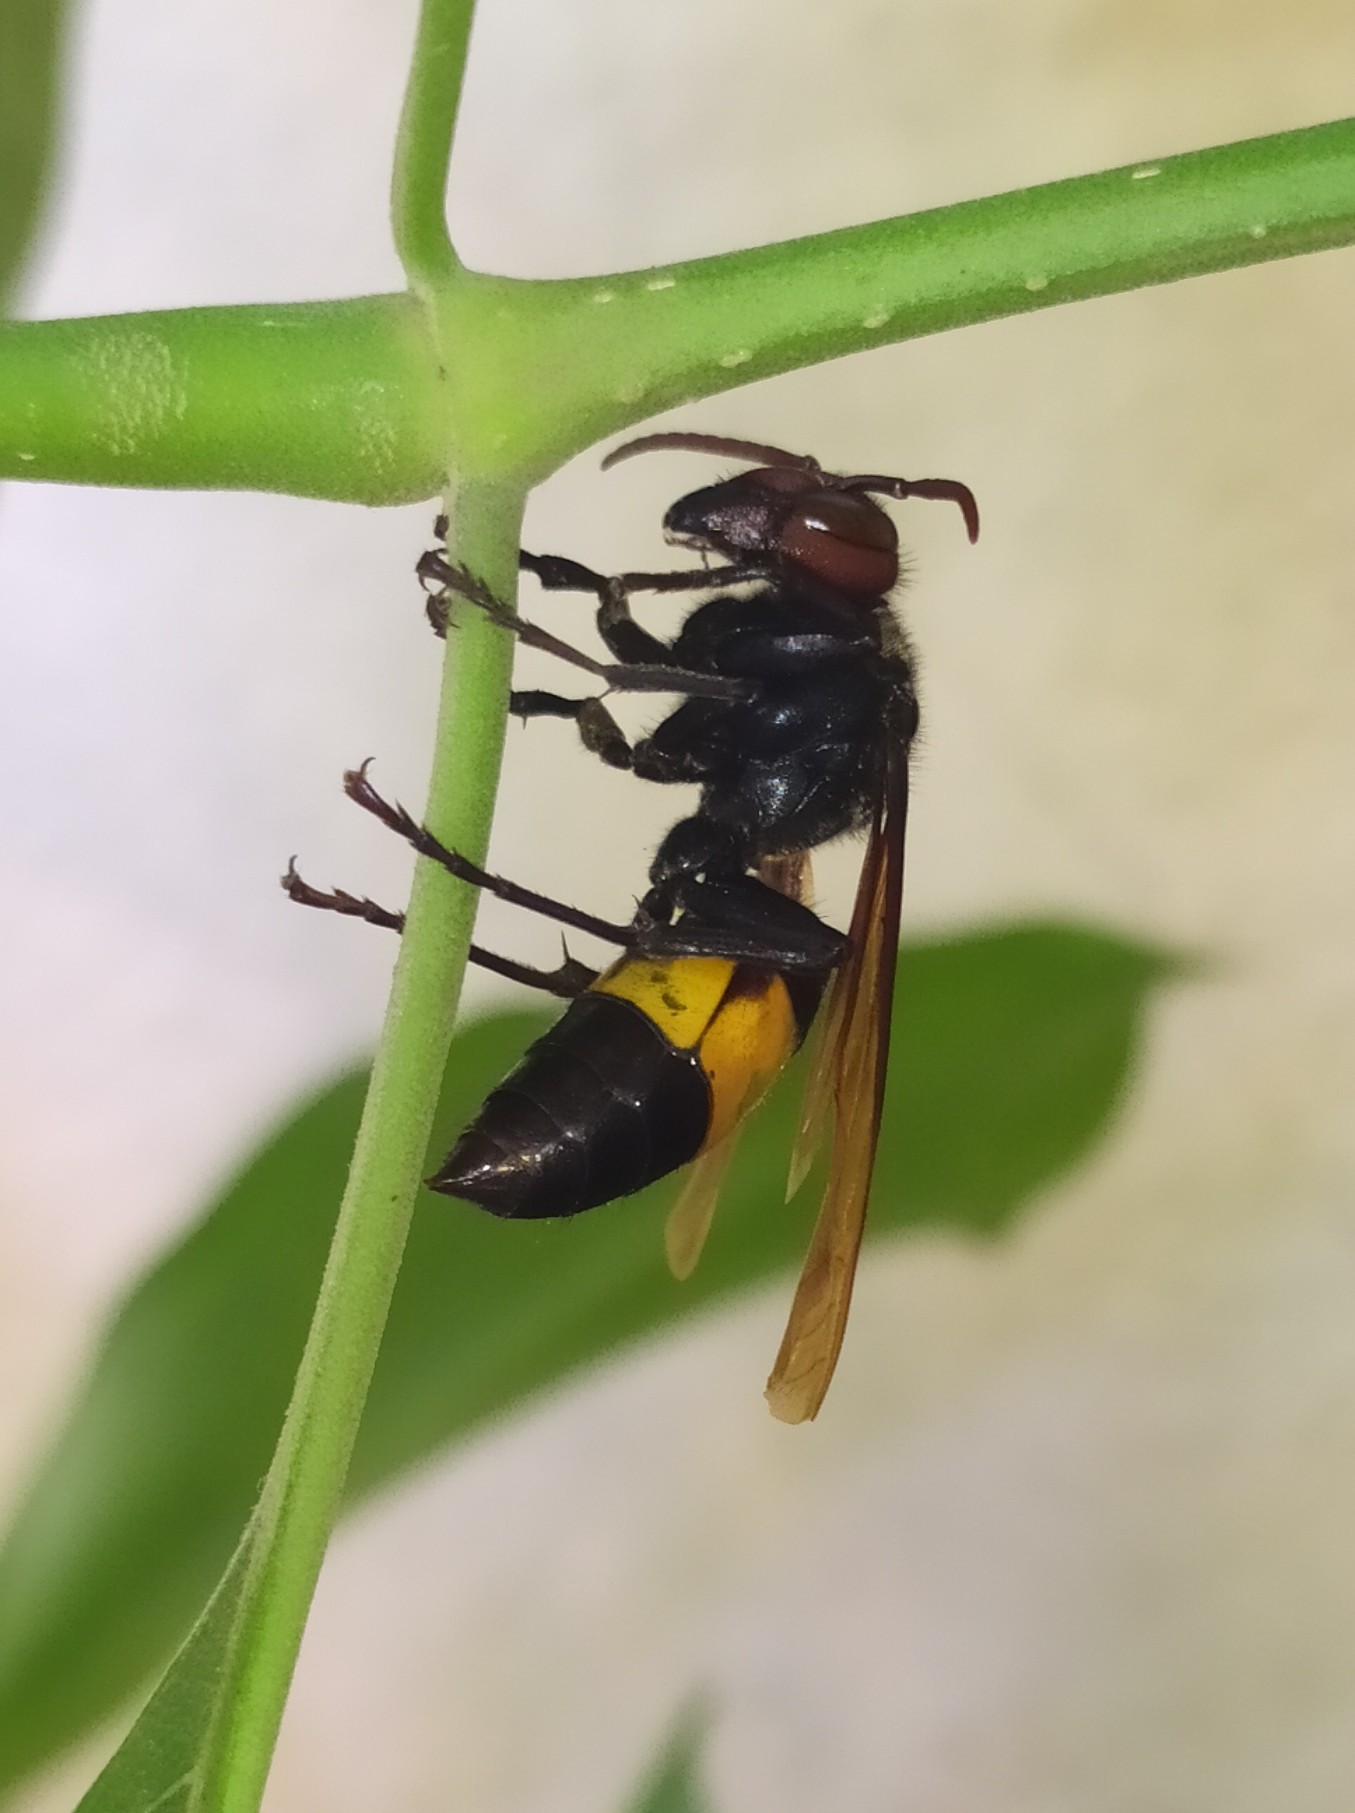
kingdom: Animalia
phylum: Arthropoda
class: Insecta
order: Hymenoptera
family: Vespidae
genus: Vespa
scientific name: Vespa tropica
